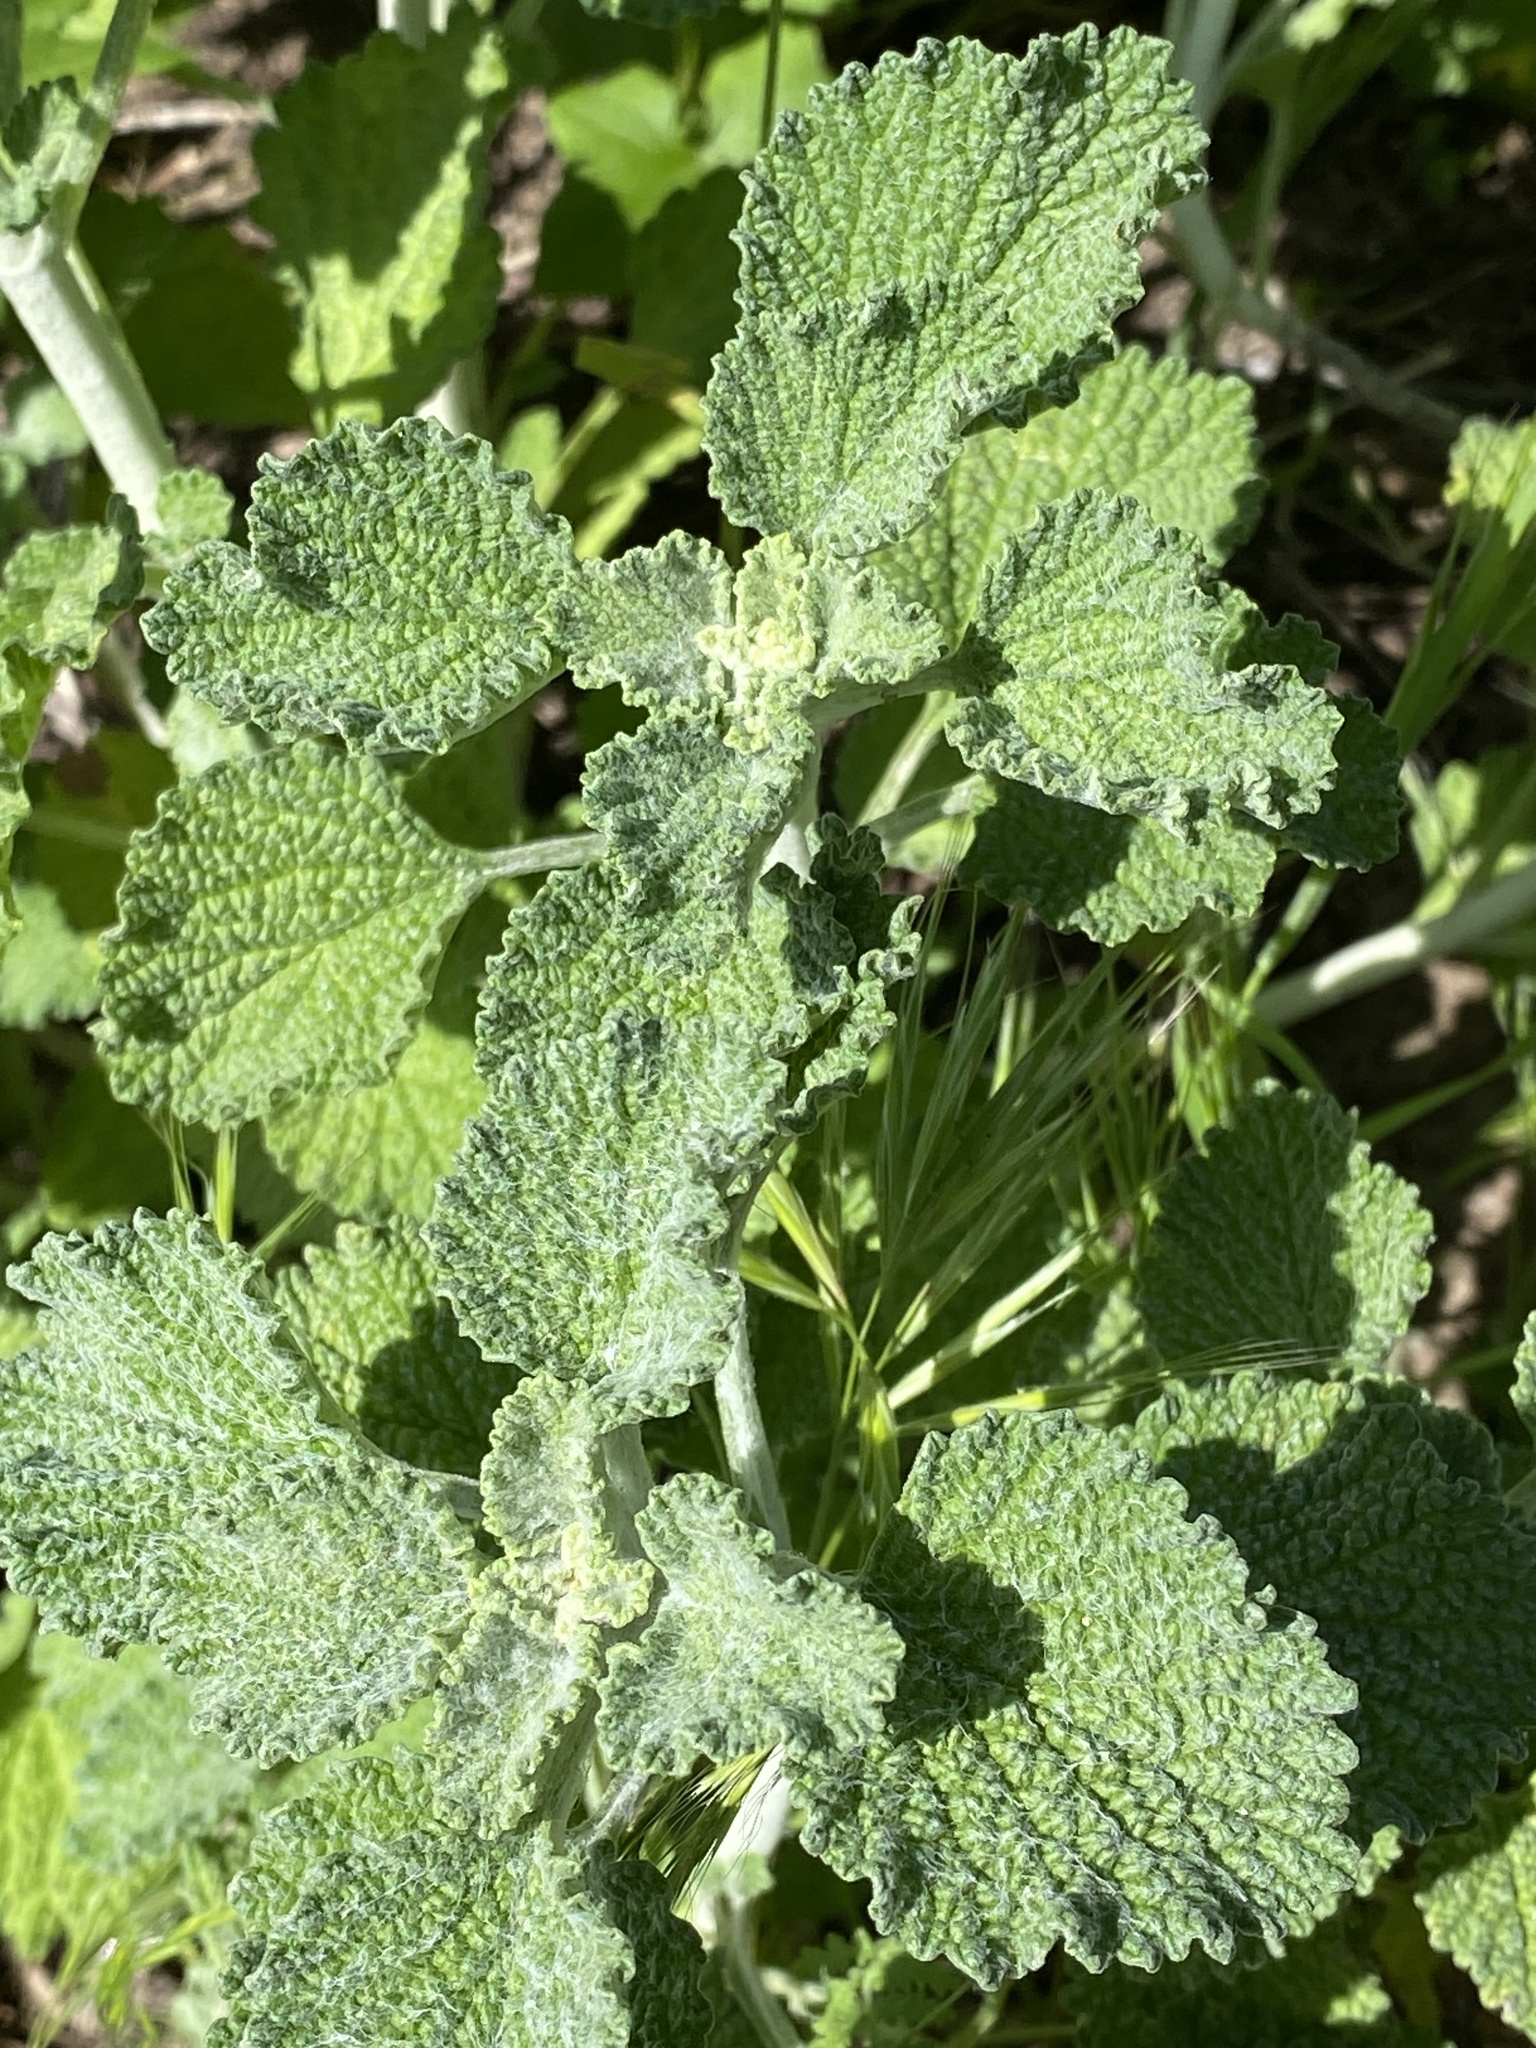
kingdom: Plantae
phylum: Tracheophyta
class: Magnoliopsida
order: Lamiales
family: Lamiaceae
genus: Marrubium
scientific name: Marrubium vulgare
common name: Horehound
